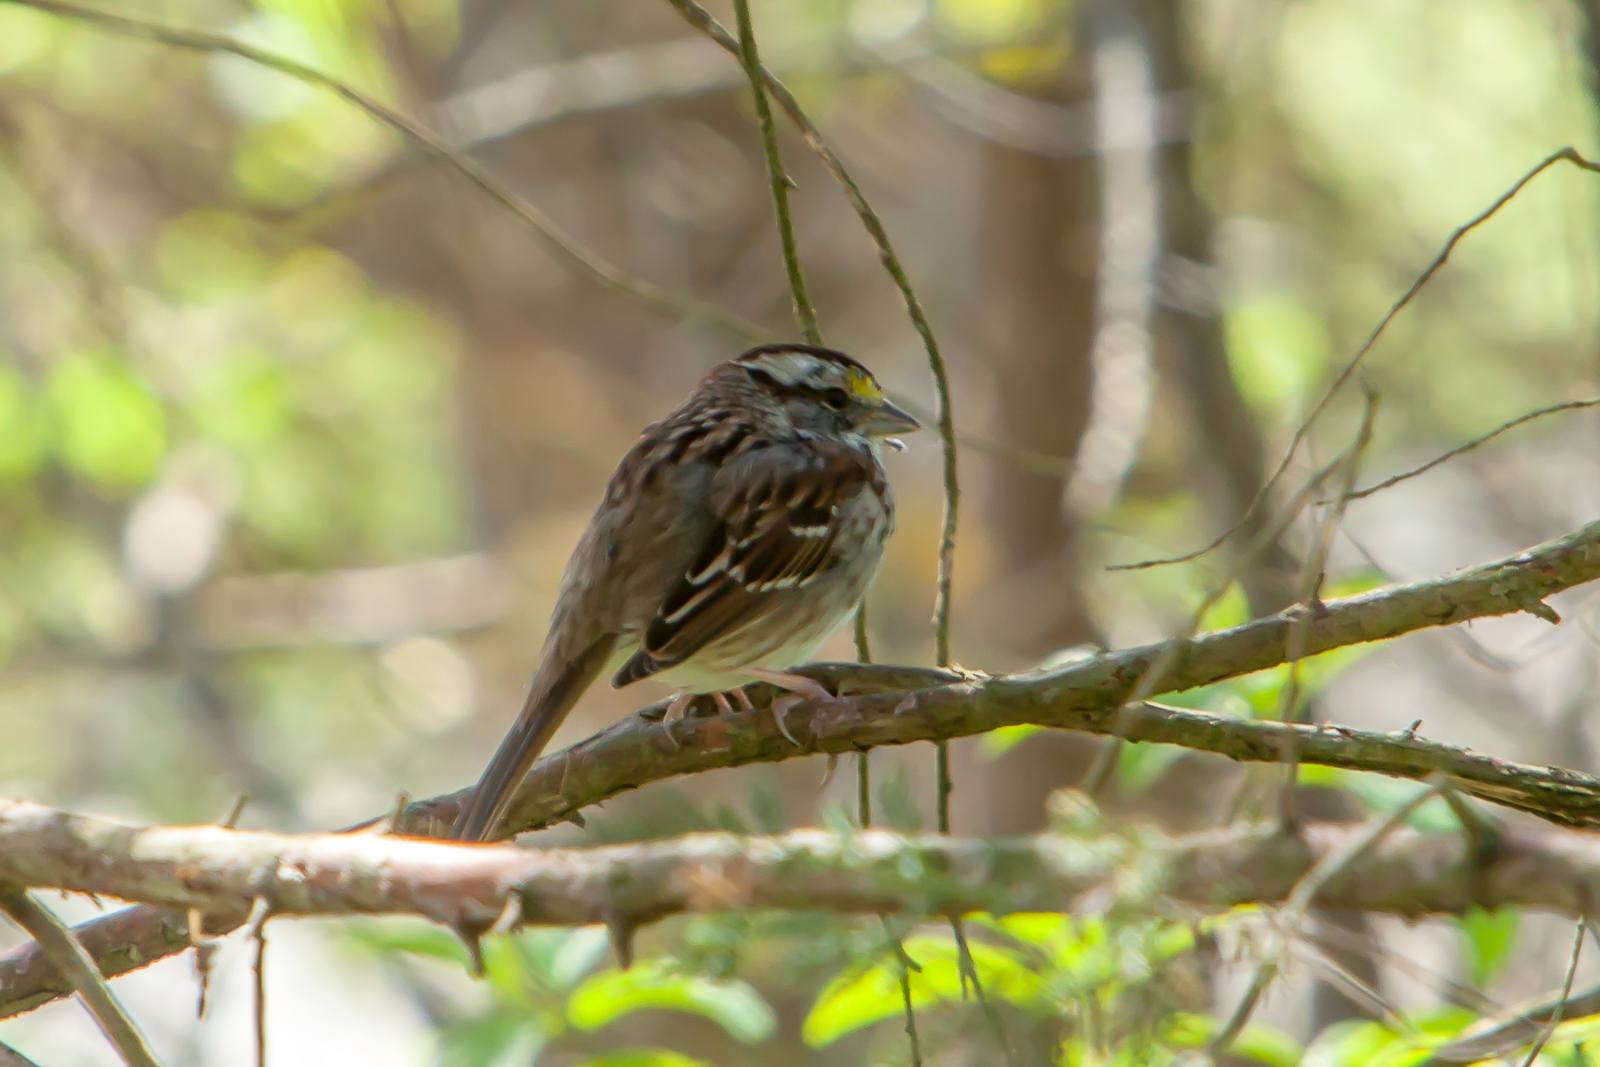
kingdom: Animalia
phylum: Chordata
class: Aves
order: Passeriformes
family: Passerellidae
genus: Zonotrichia
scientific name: Zonotrichia albicollis
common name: White-throated sparrow
